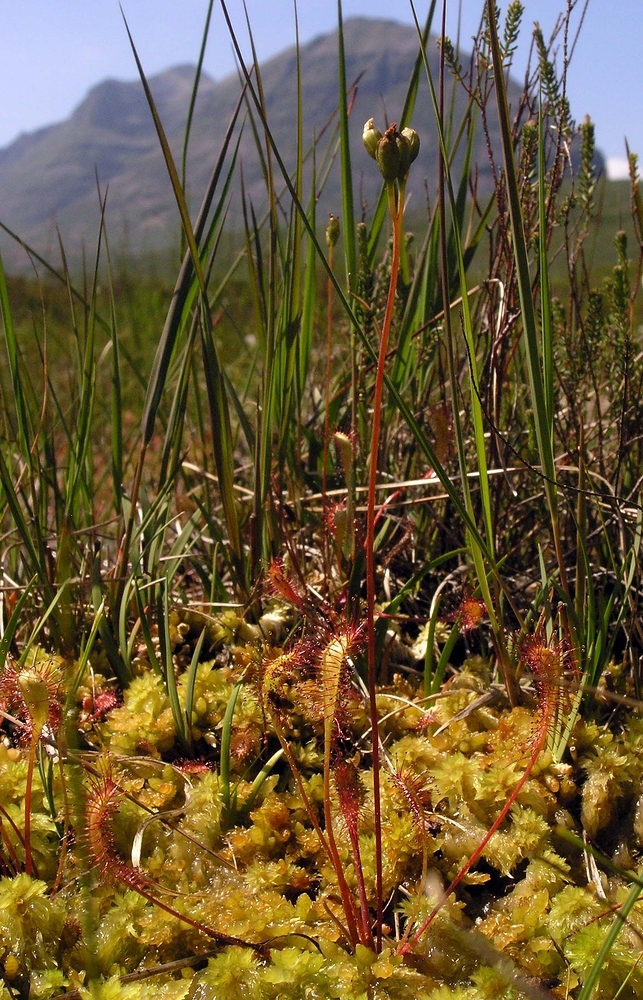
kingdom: Plantae
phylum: Tracheophyta
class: Magnoliopsida
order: Caryophyllales
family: Droseraceae
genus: Drosera
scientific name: Drosera anglica
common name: Great sundew
